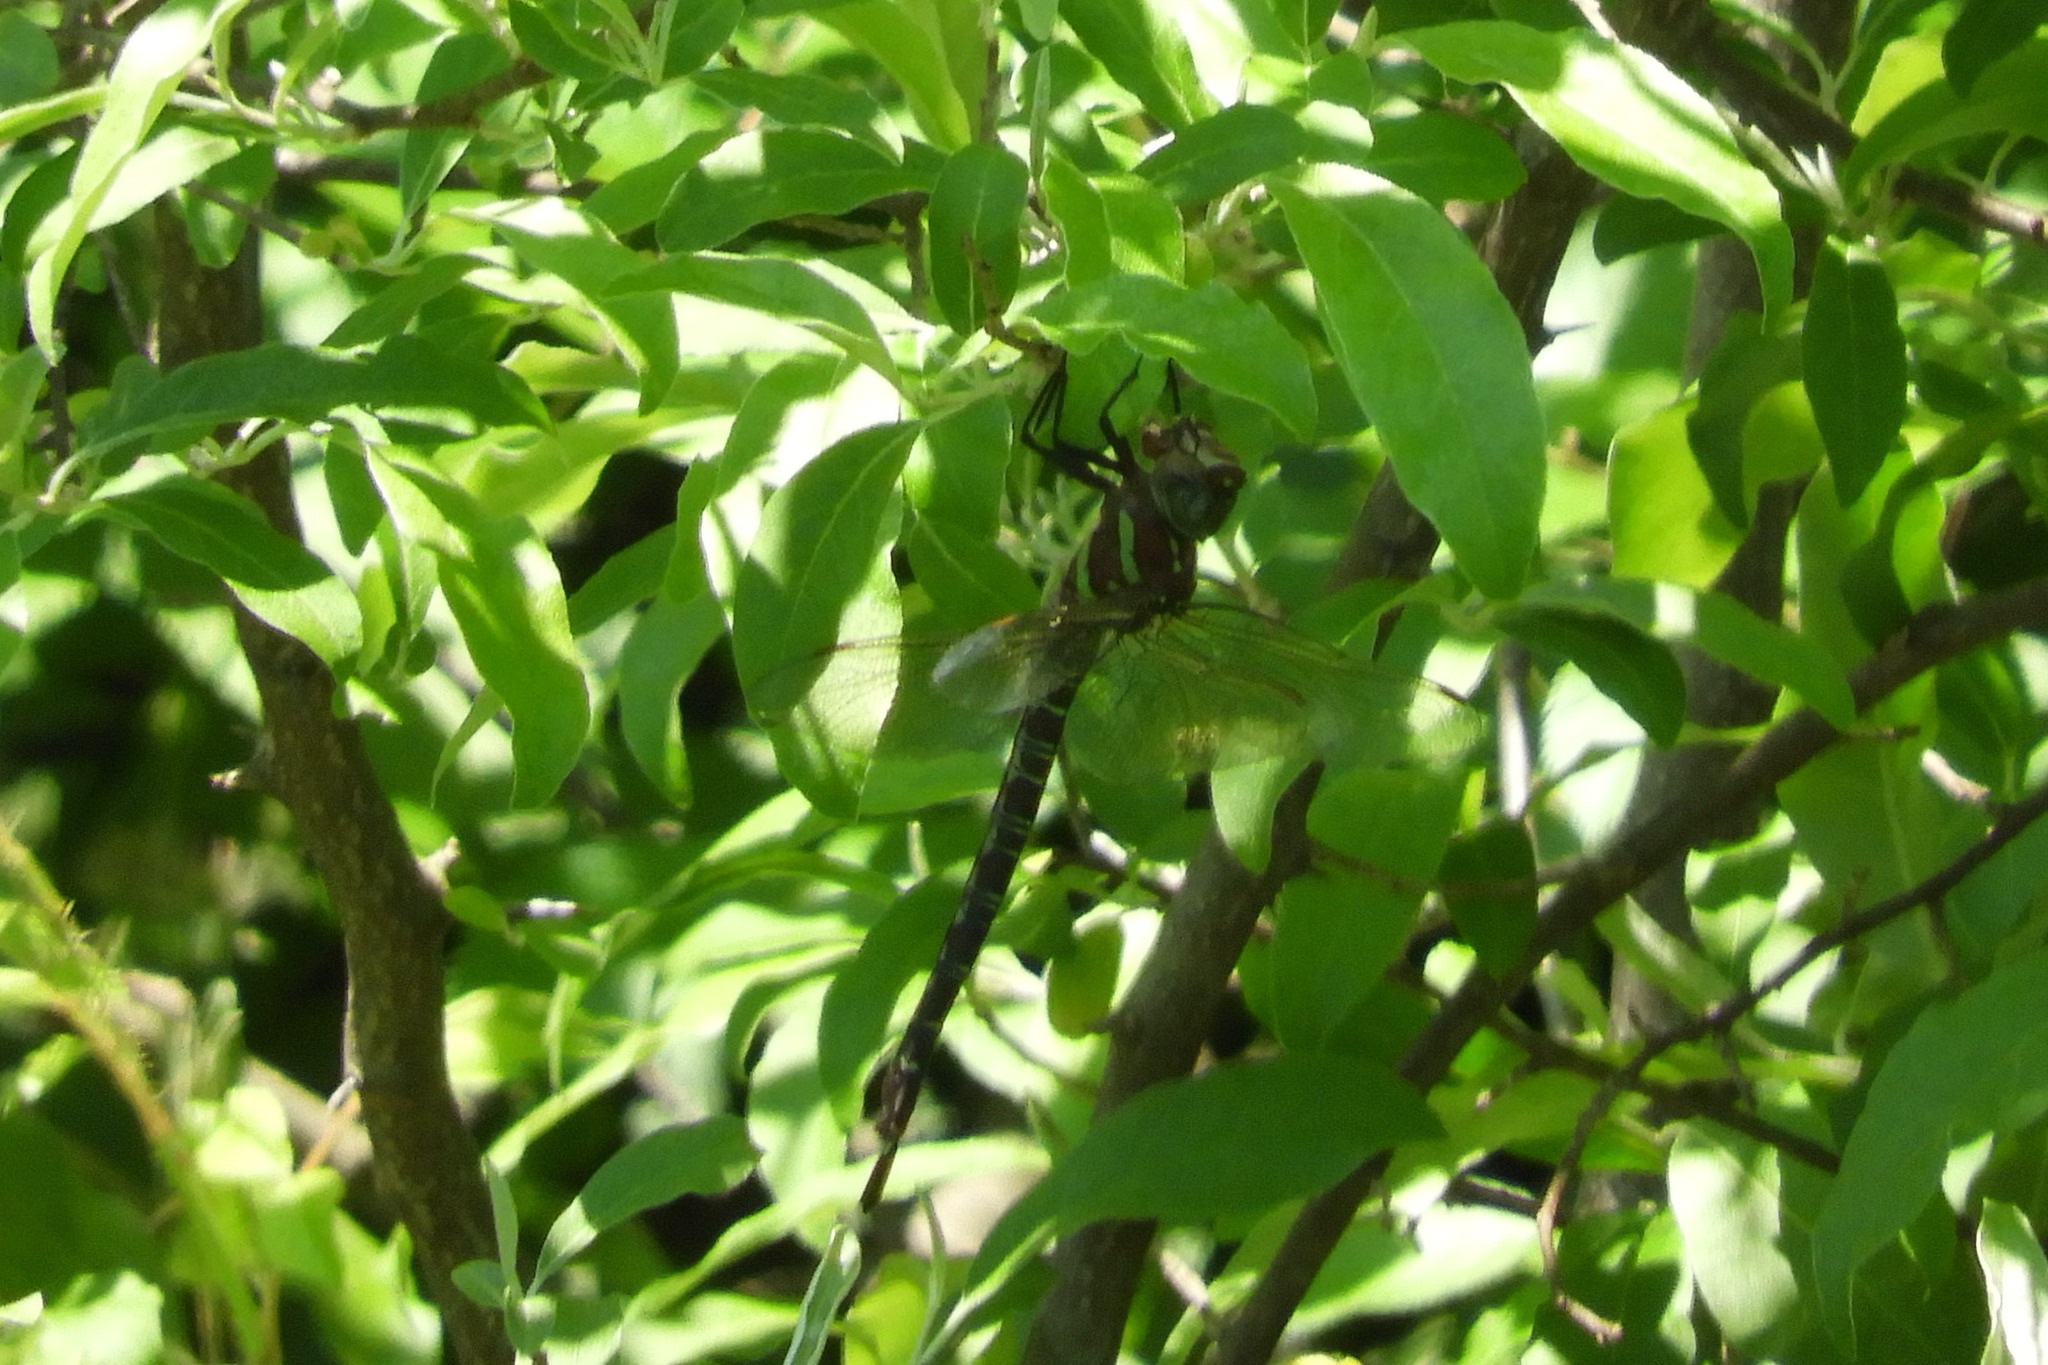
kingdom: Animalia
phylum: Arthropoda
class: Insecta
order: Odonata
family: Aeshnidae
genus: Epiaeschna
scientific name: Epiaeschna heros
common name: Swamp darner
